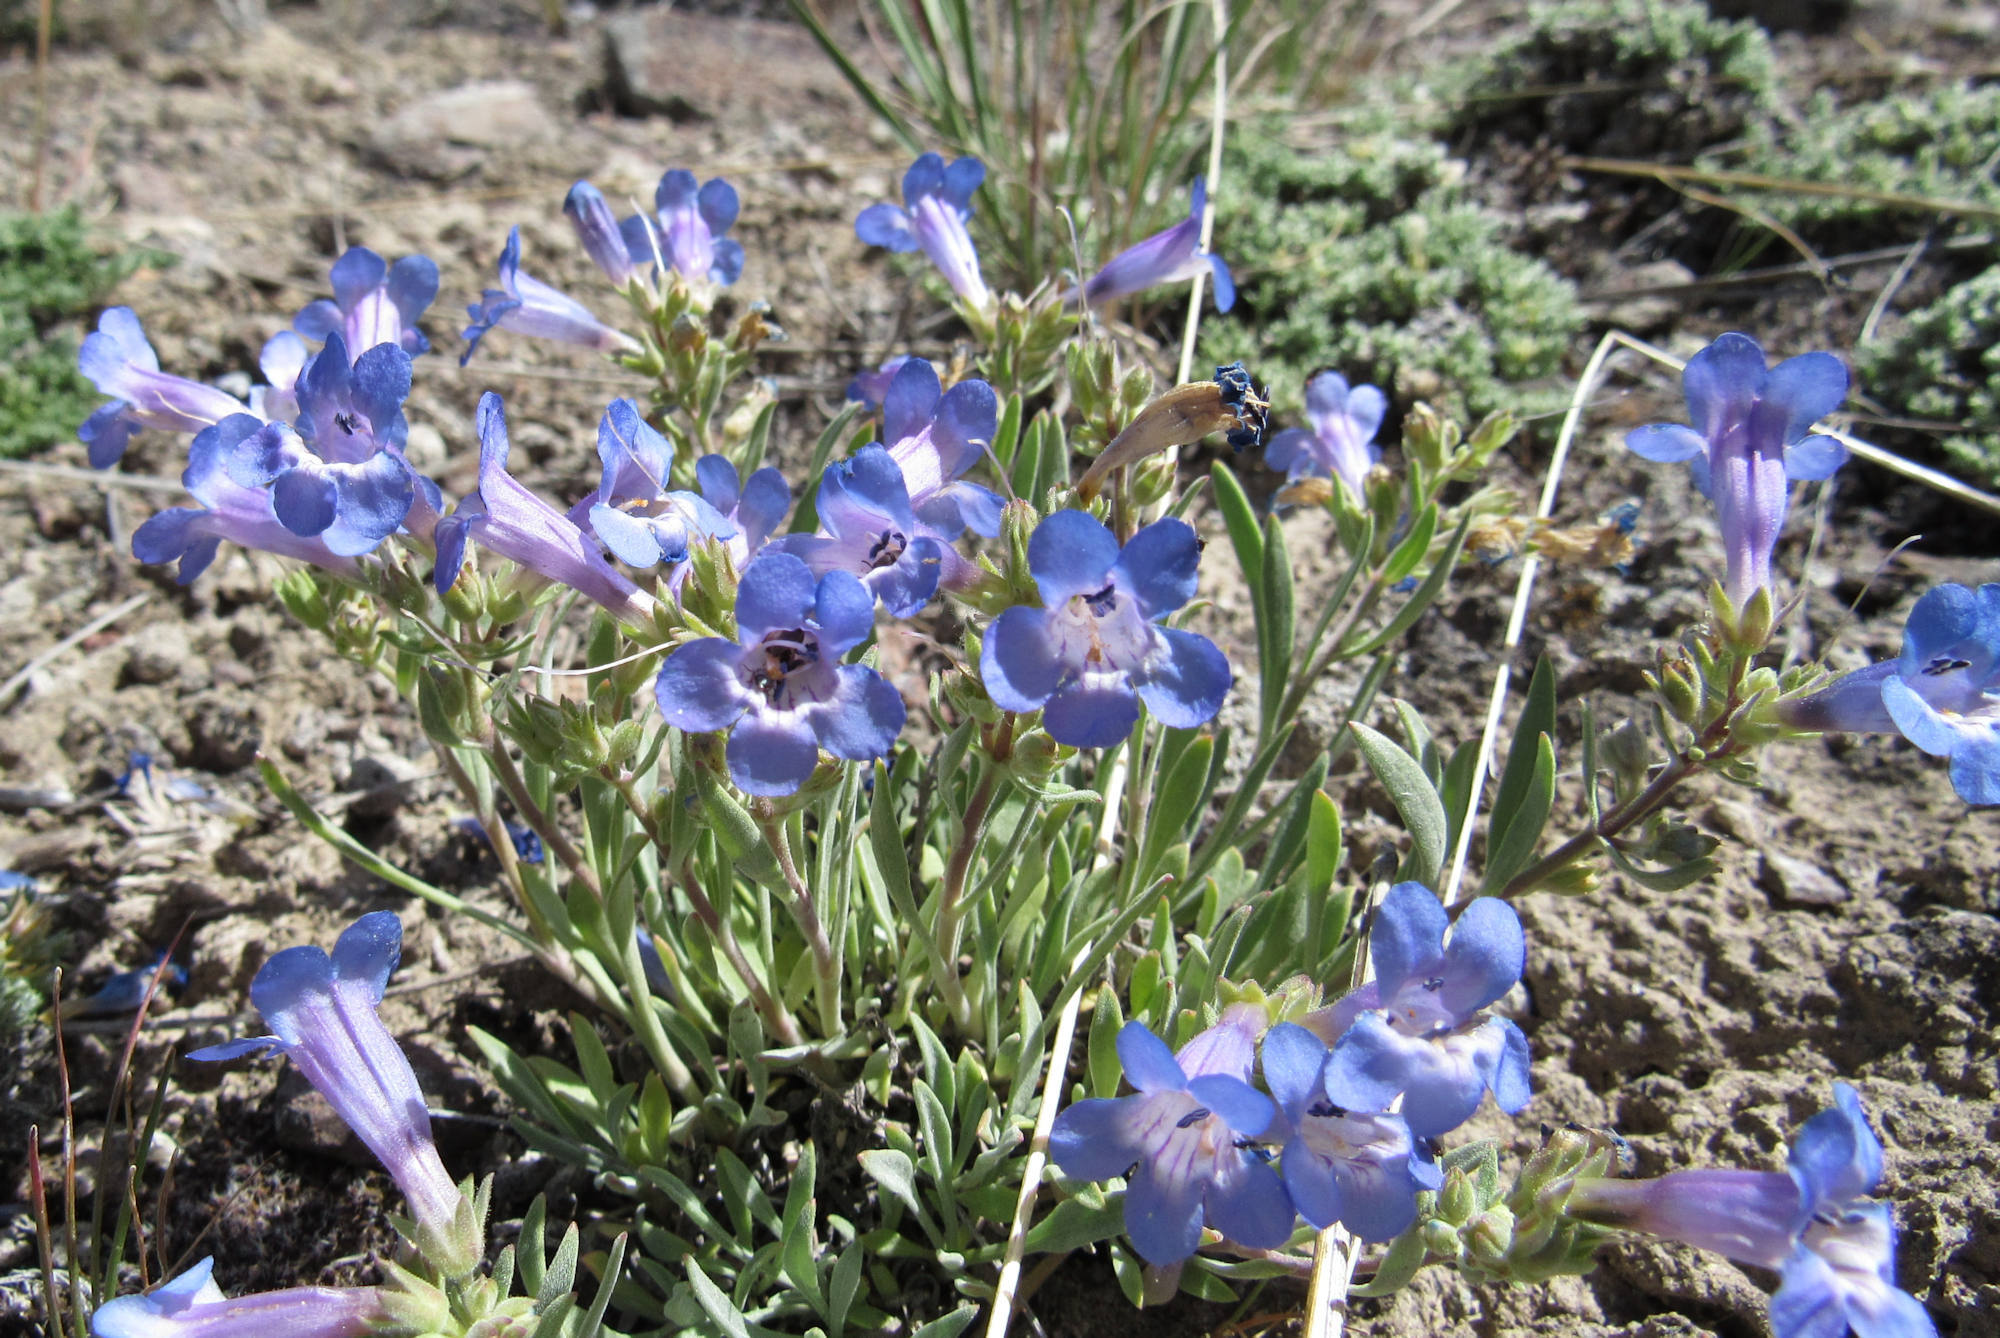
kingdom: Plantae
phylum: Tracheophyta
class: Magnoliopsida
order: Lamiales
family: Plantaginaceae
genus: Penstemon
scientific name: Penstemon pumilus
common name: Dwarf penstemon
